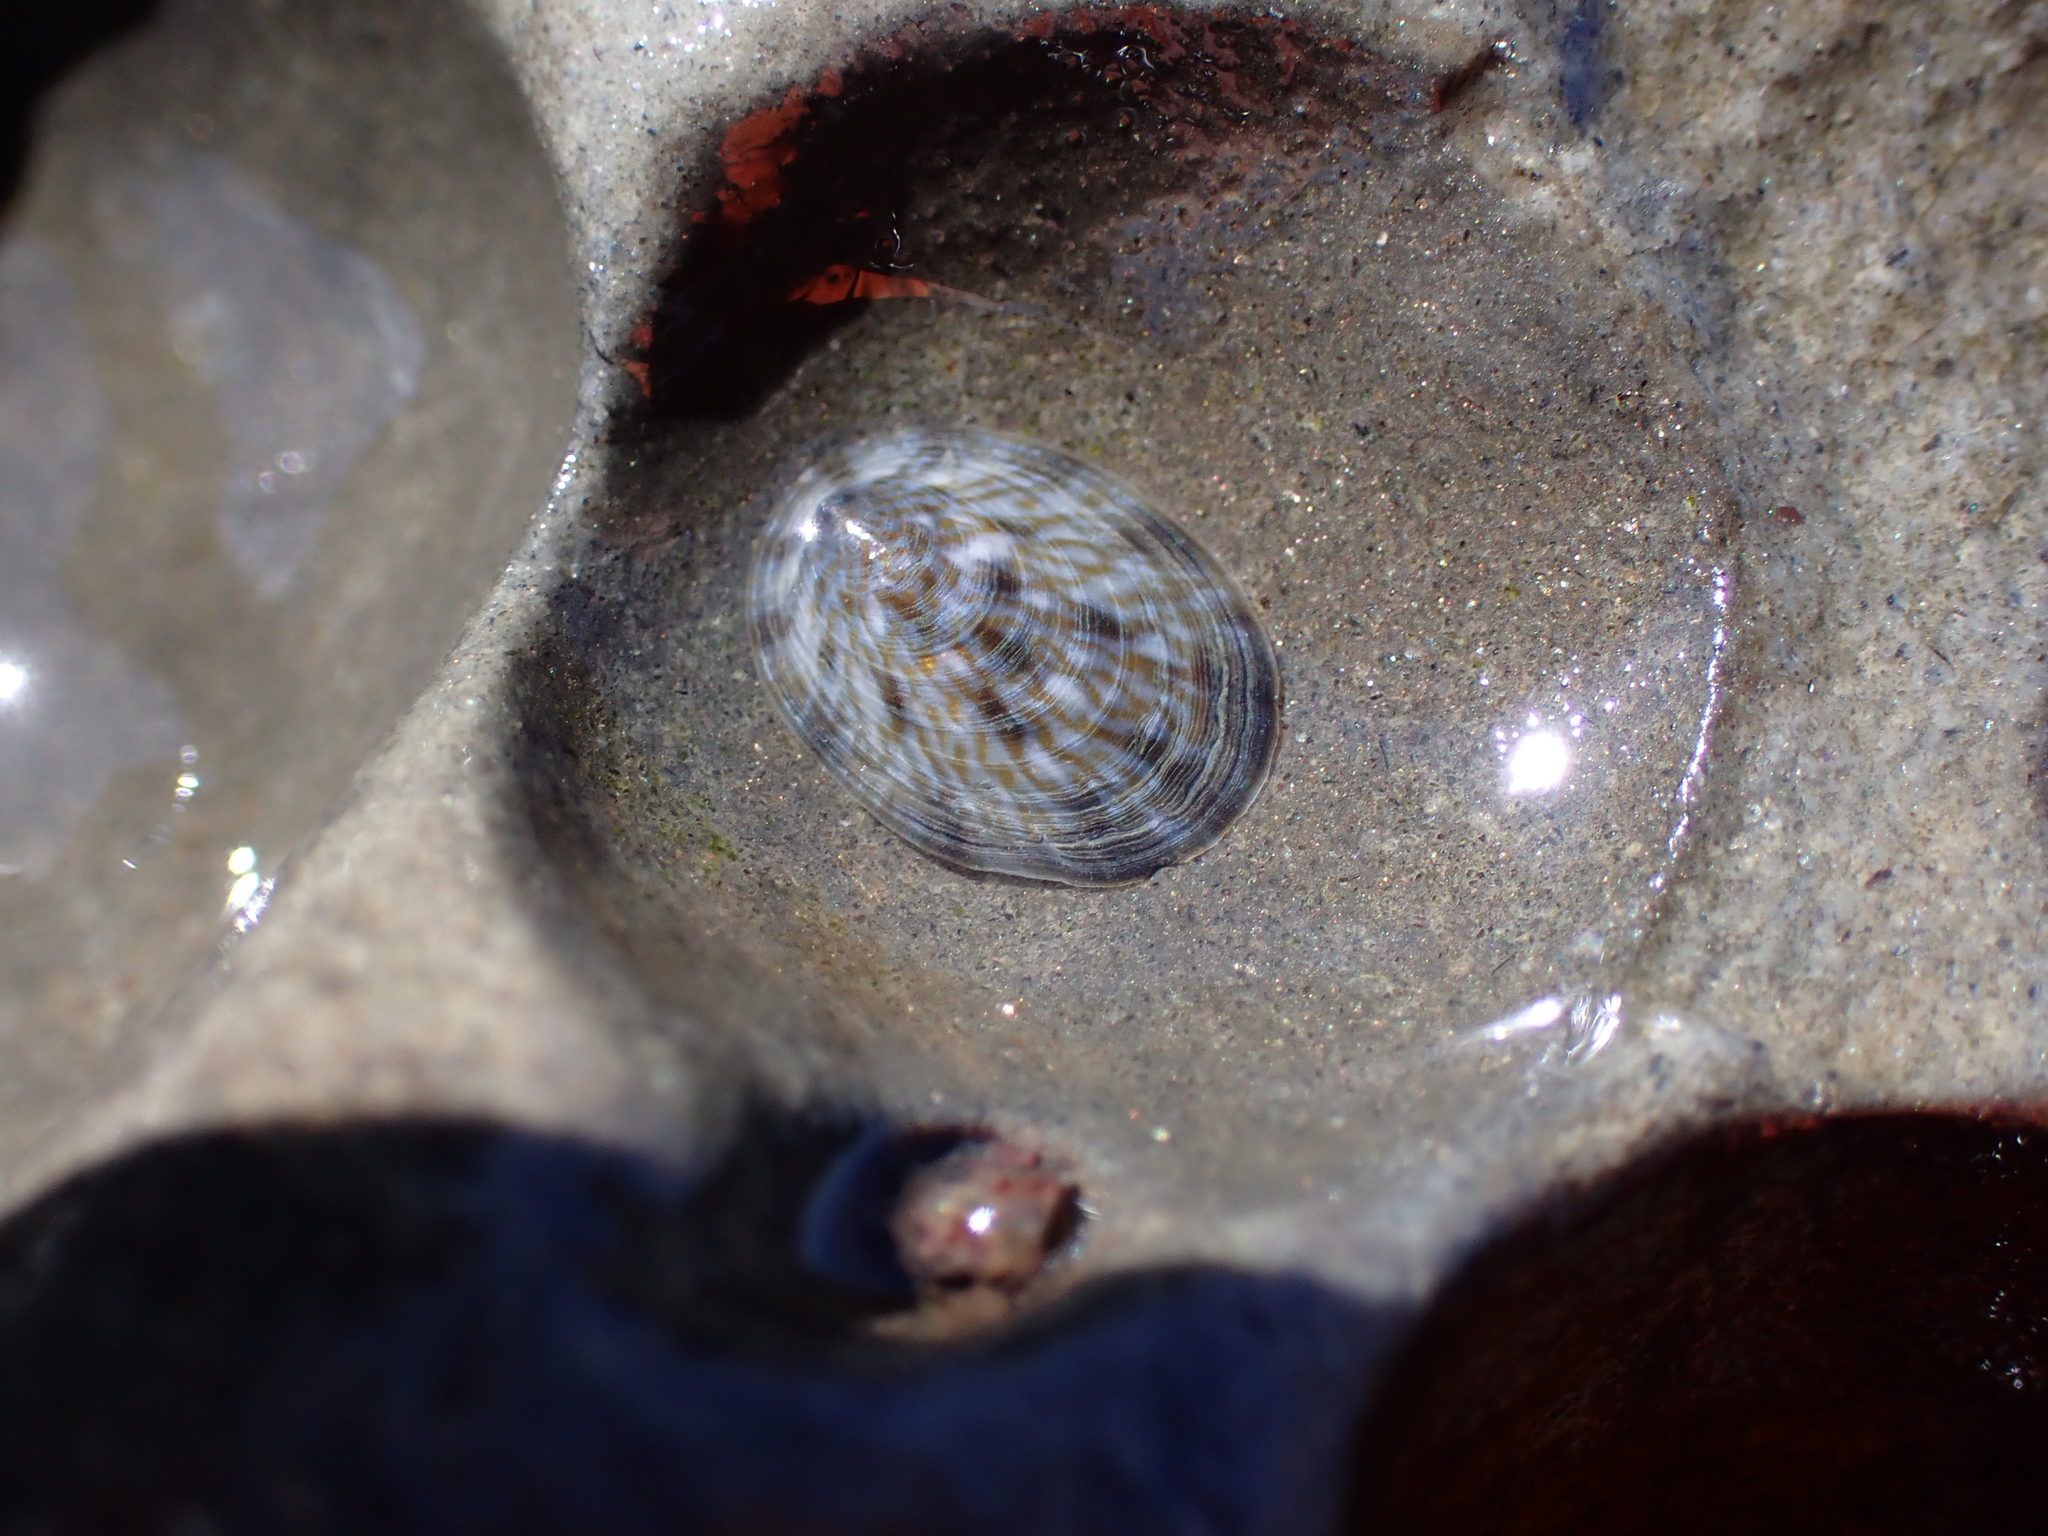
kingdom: Animalia
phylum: Mollusca
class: Gastropoda
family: Nacellidae
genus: Cellana
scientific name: Cellana radians
